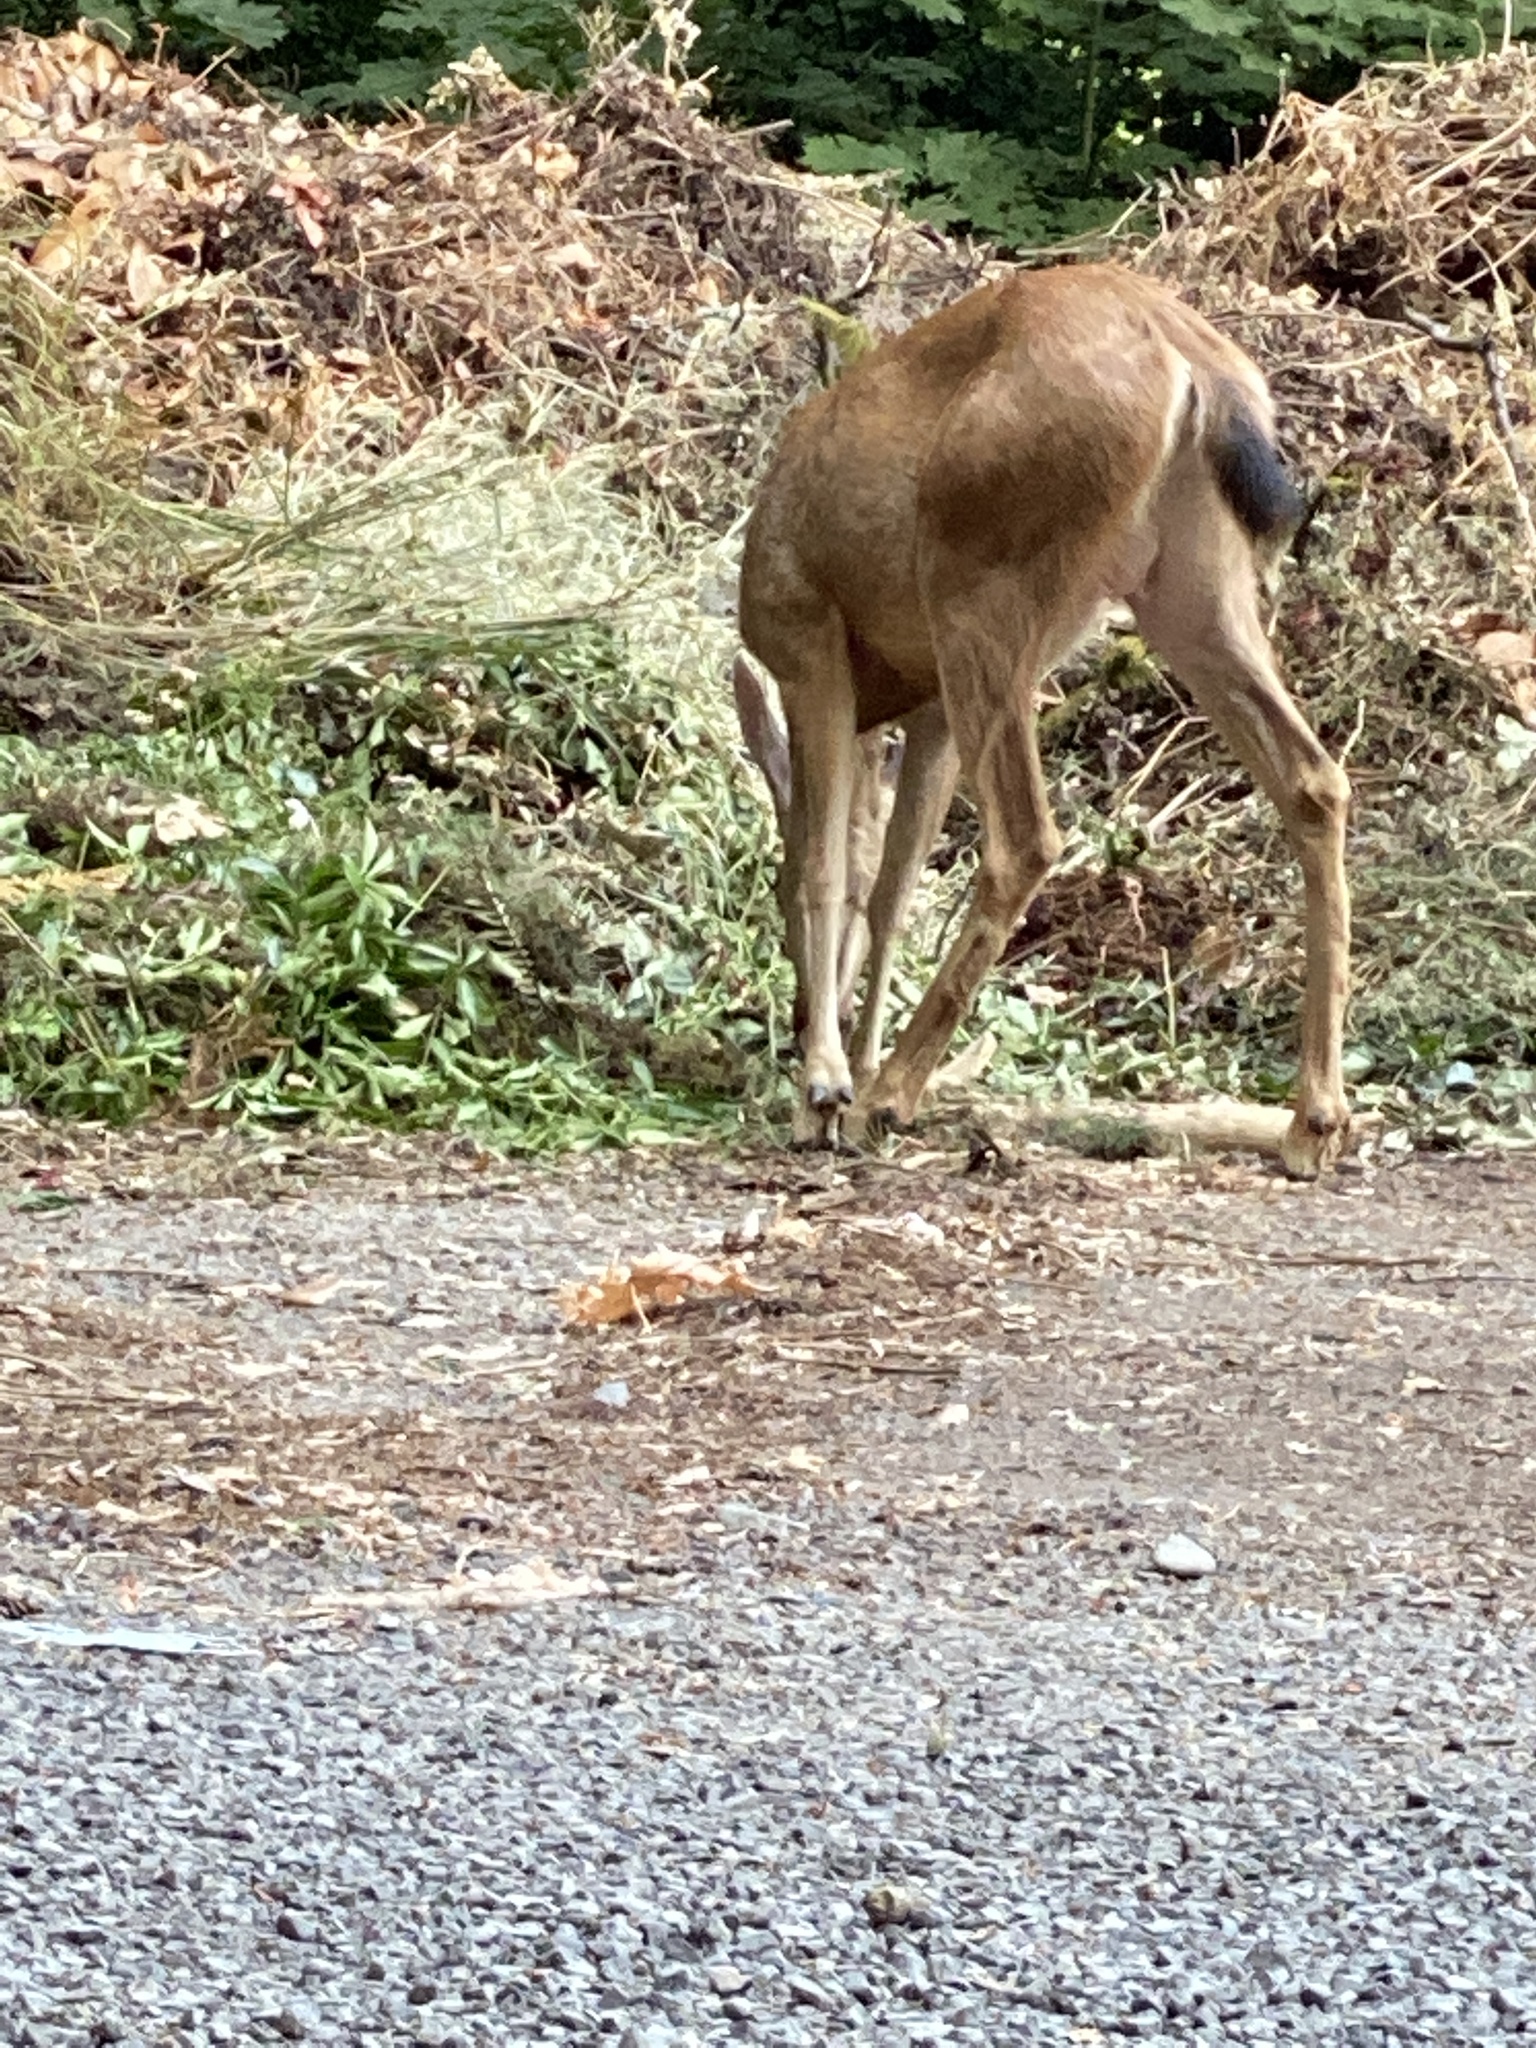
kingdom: Animalia
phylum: Chordata
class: Mammalia
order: Artiodactyla
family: Cervidae
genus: Odocoileus
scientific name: Odocoileus hemionus
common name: Mule deer
